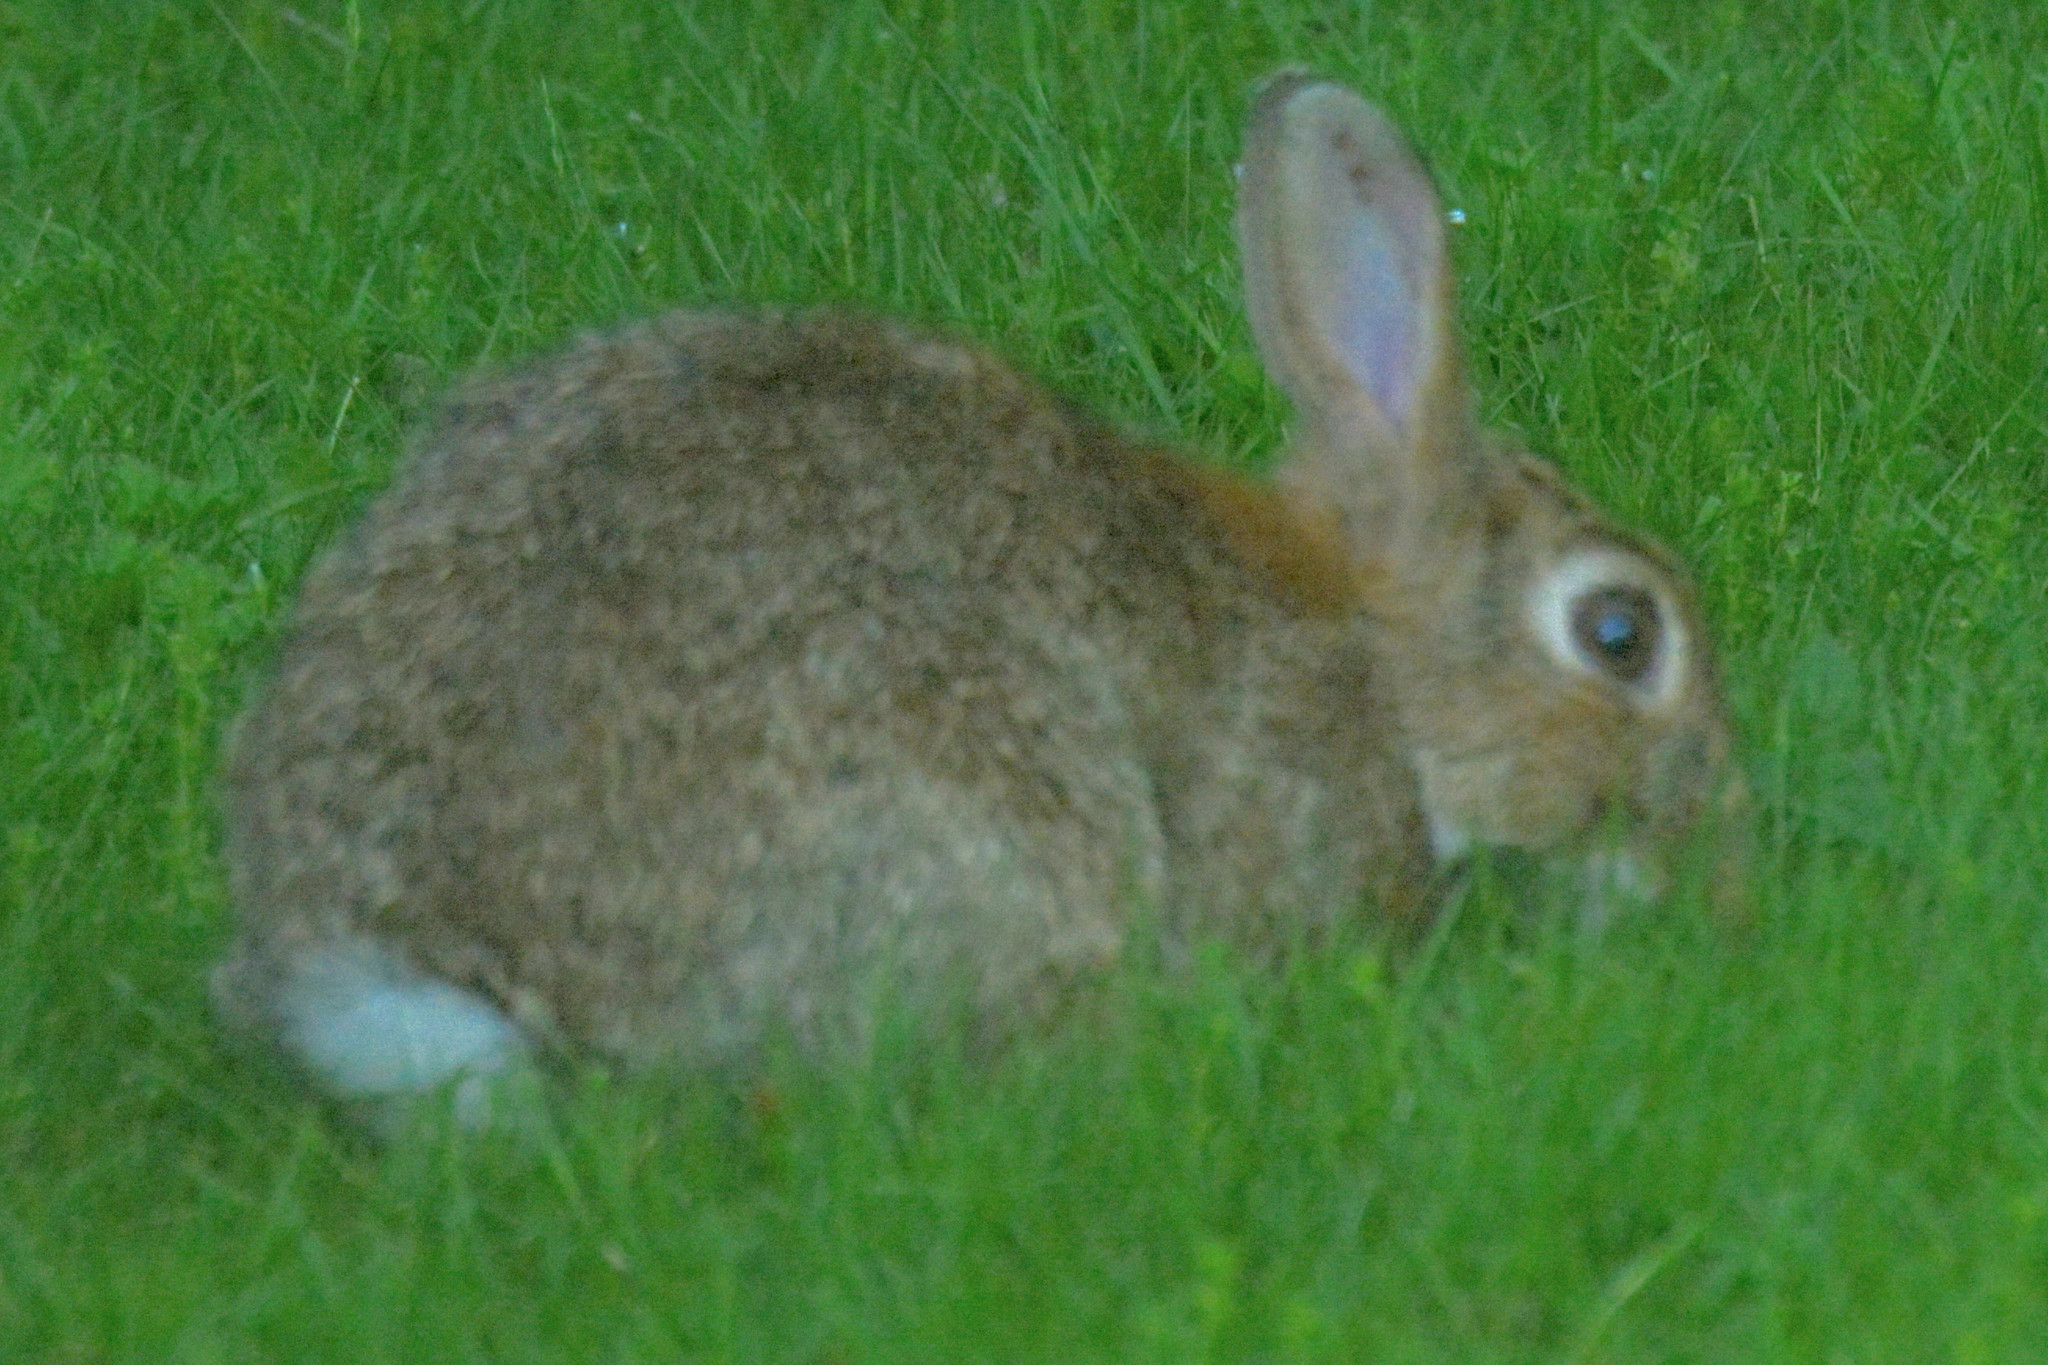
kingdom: Animalia
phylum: Chordata
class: Mammalia
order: Lagomorpha
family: Leporidae
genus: Oryctolagus
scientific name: Oryctolagus cuniculus
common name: European rabbit
